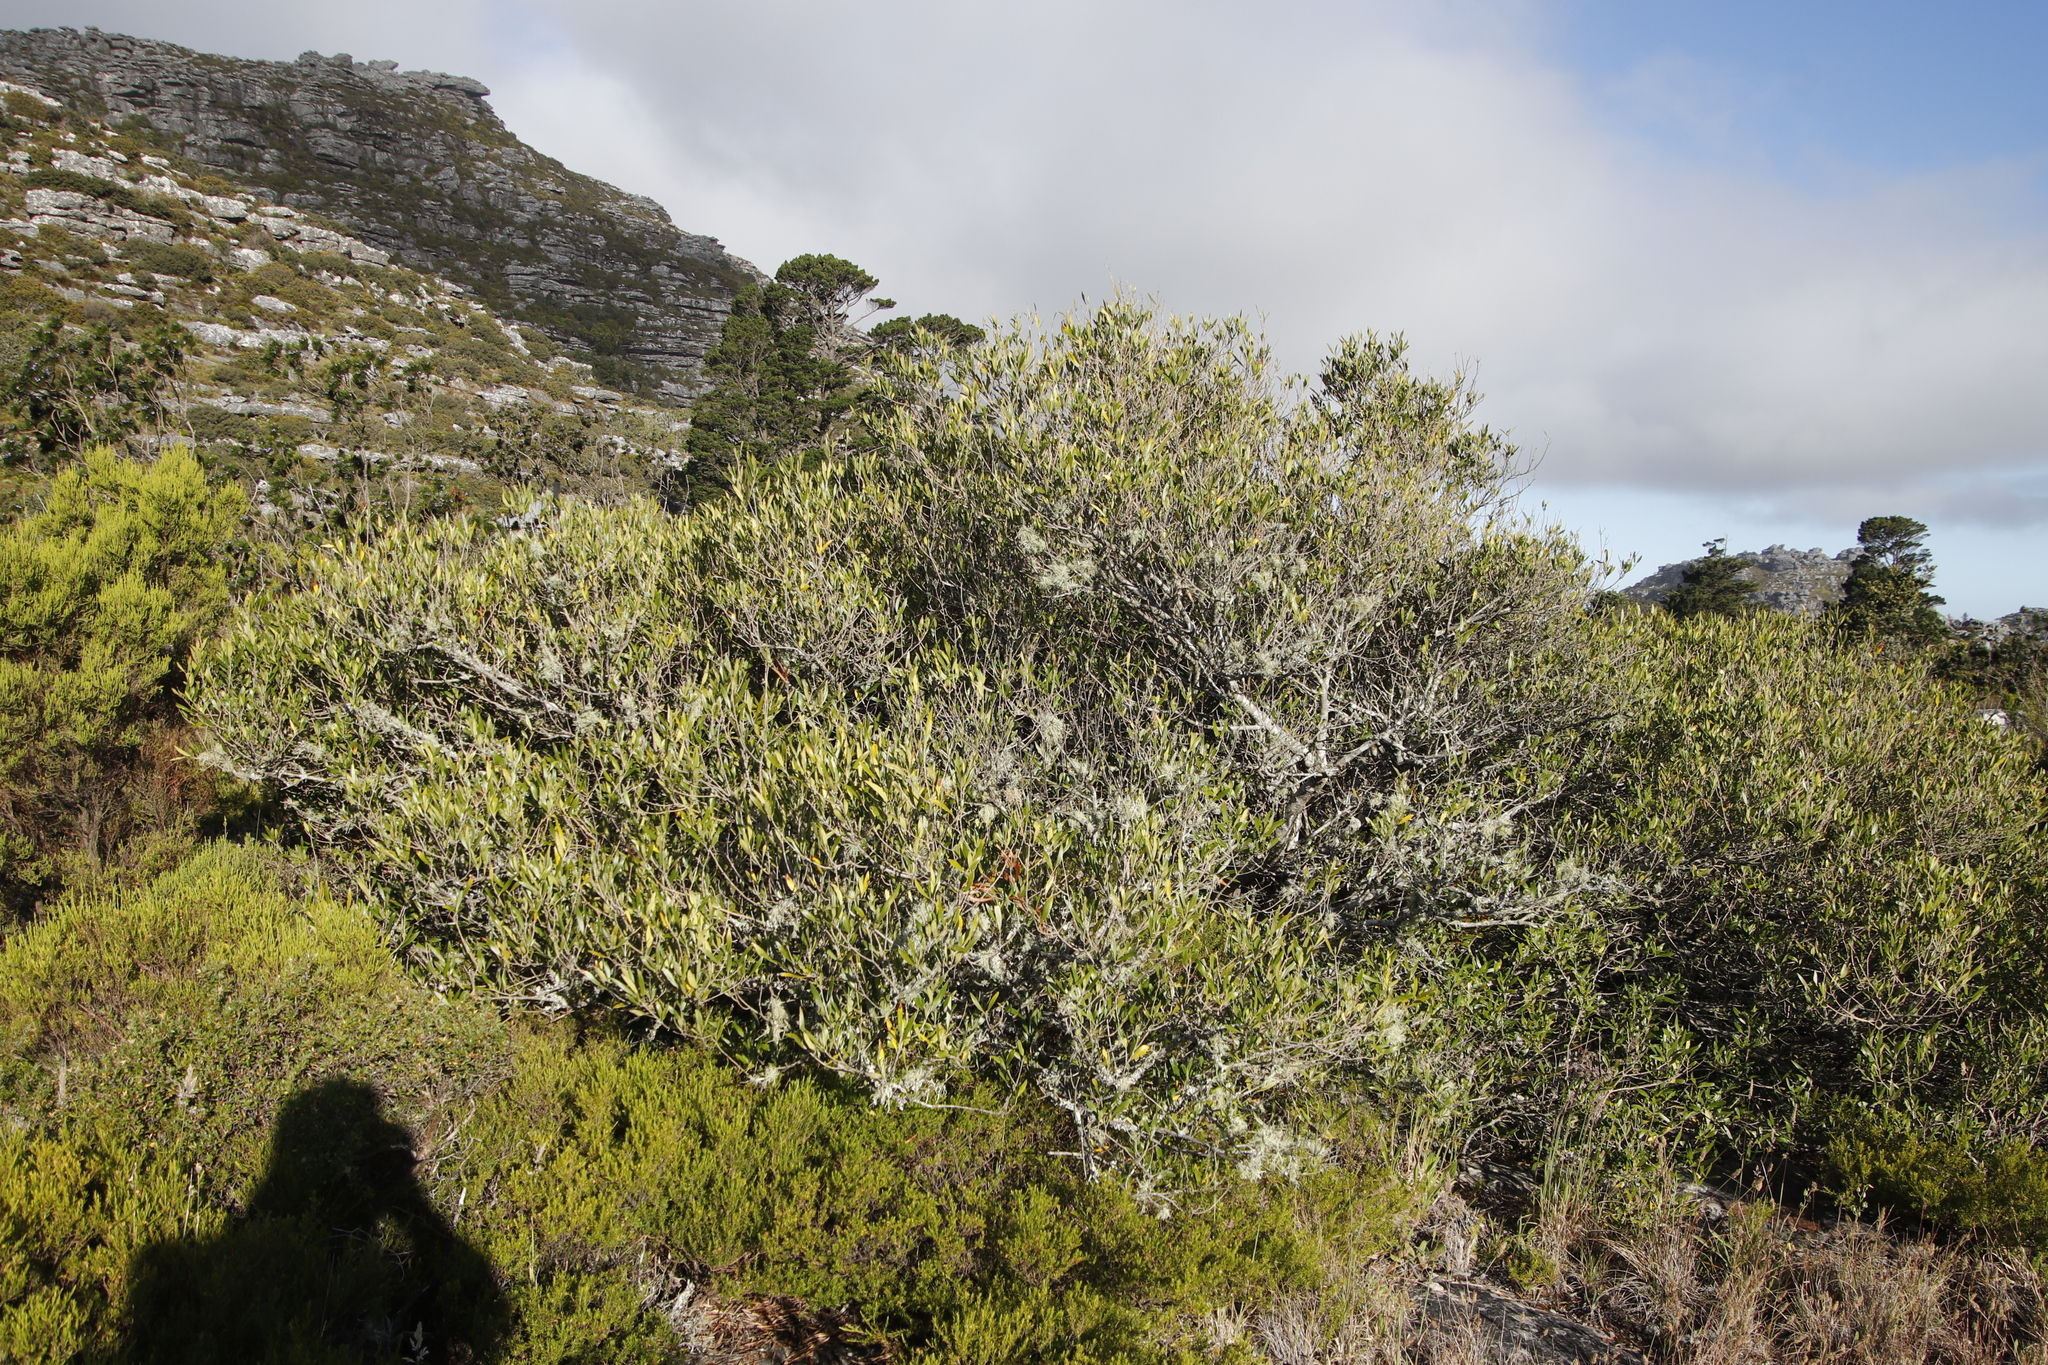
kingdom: Plantae
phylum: Tracheophyta
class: Magnoliopsida
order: Lamiales
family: Oleaceae
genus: Olea
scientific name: Olea europaea
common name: Olive
